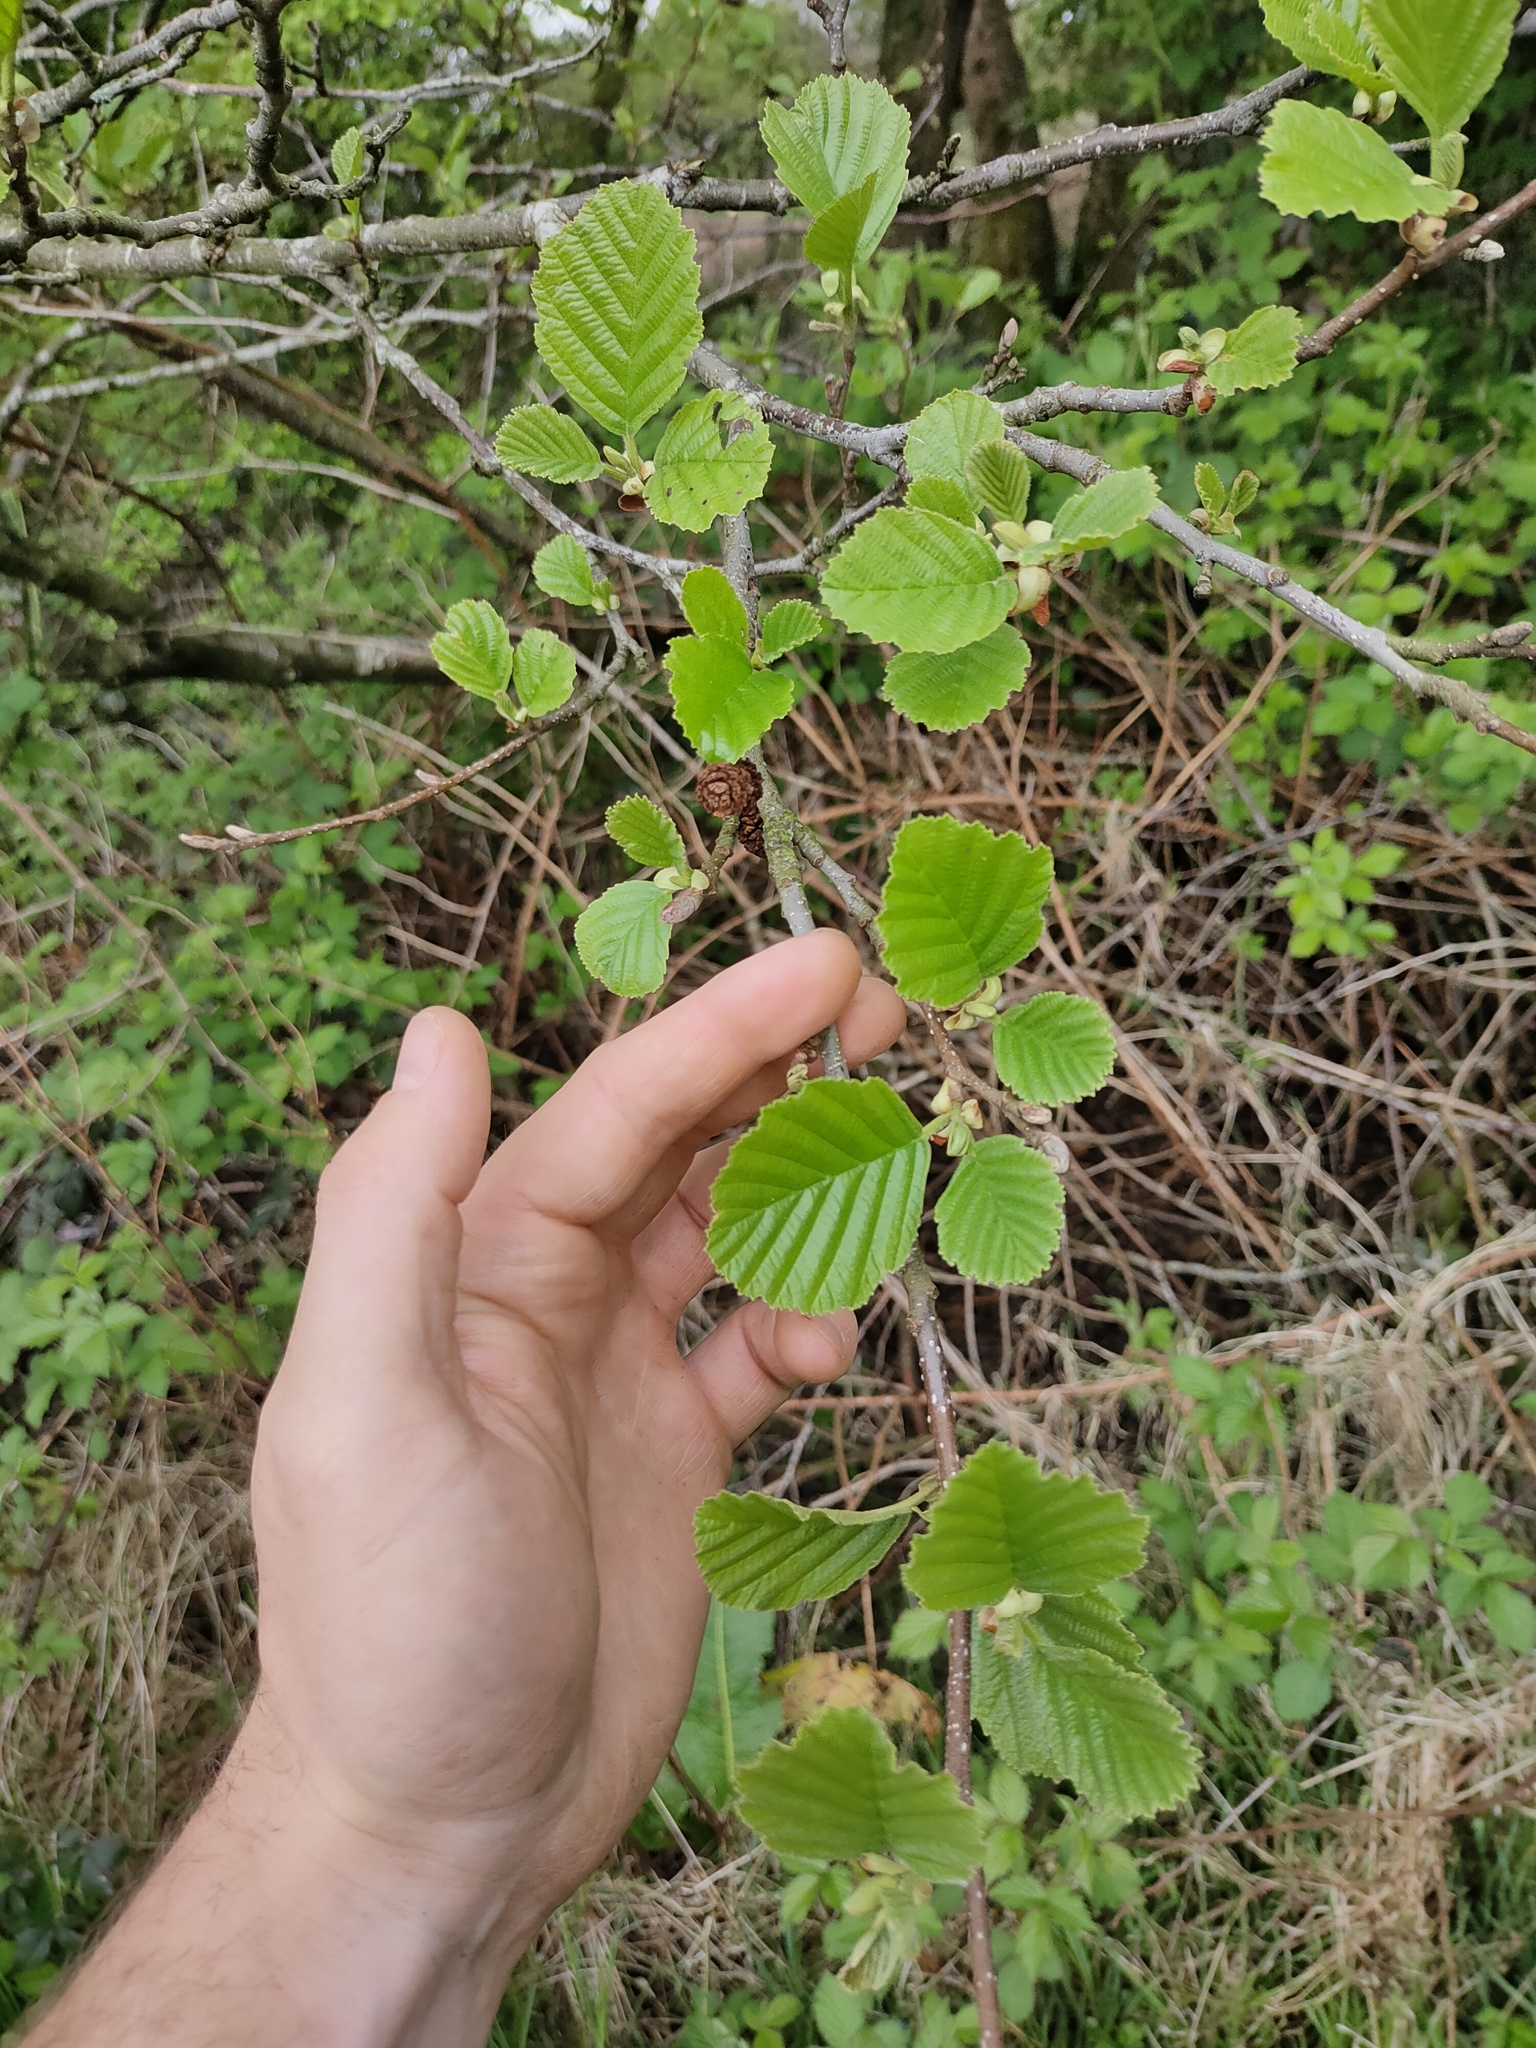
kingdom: Plantae
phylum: Tracheophyta
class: Magnoliopsida
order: Fagales
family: Betulaceae
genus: Alnus
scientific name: Alnus glutinosa
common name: Black alder
